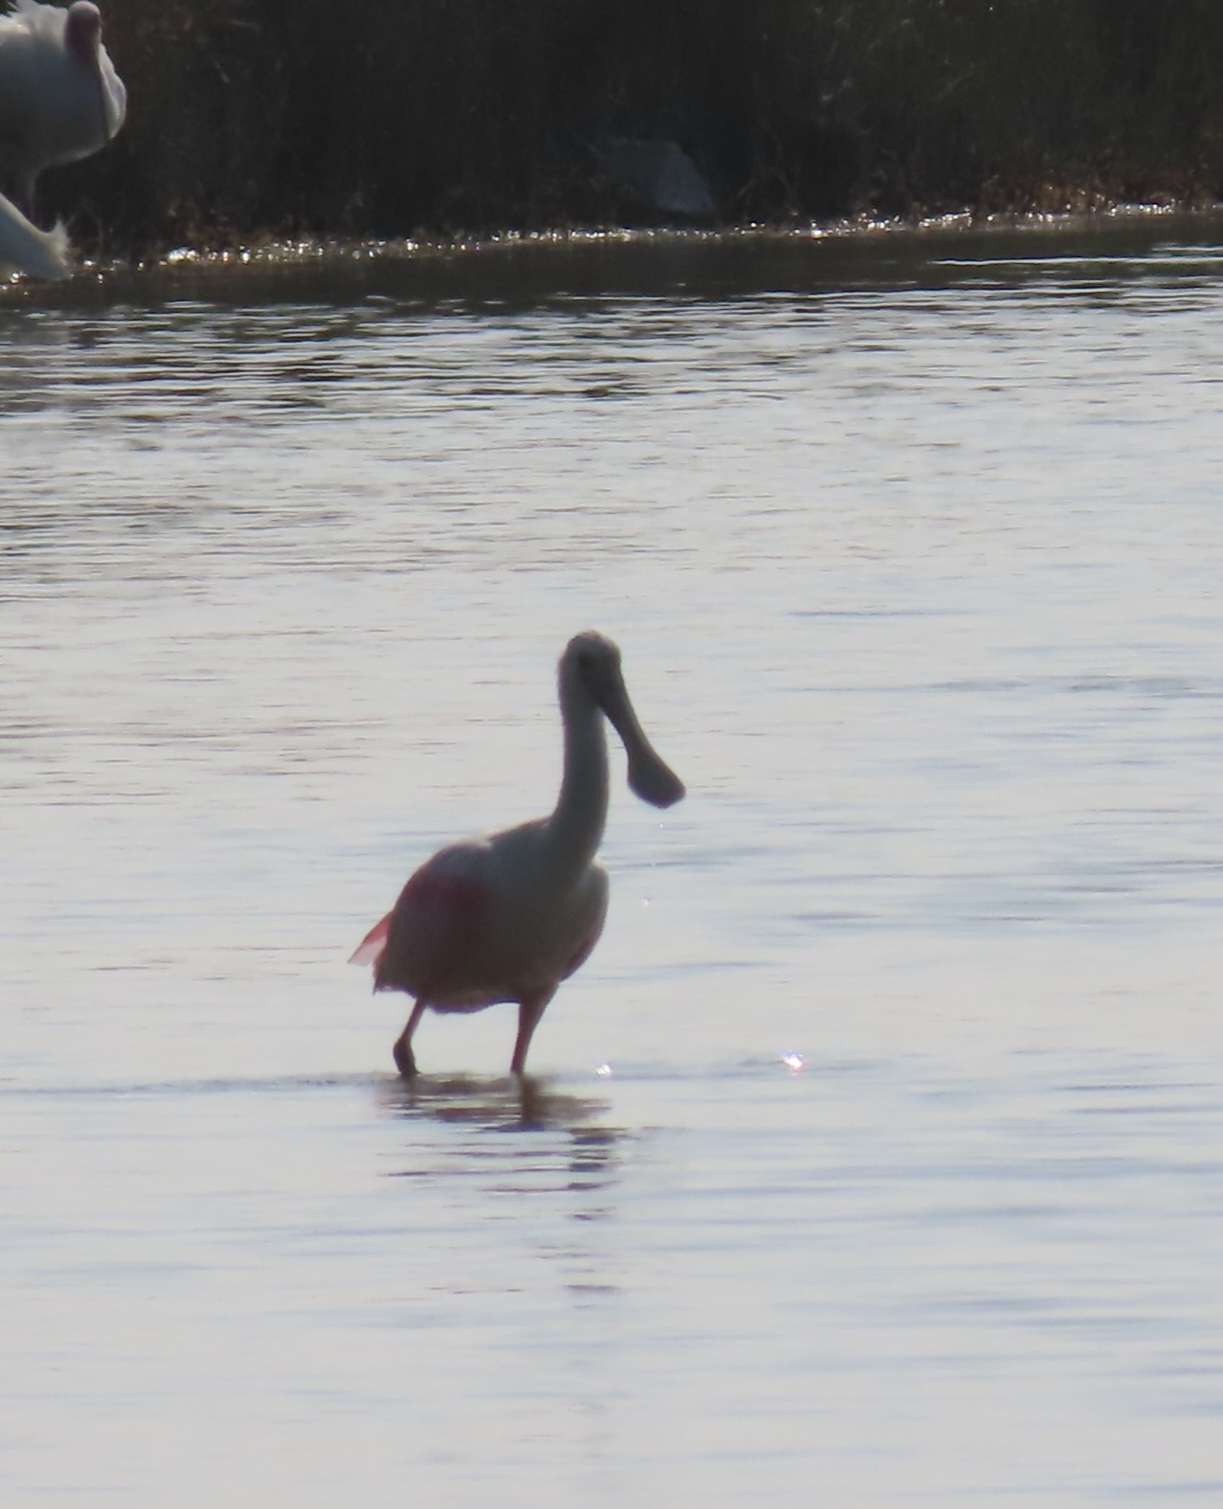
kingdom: Animalia
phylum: Chordata
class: Aves
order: Pelecaniformes
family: Threskiornithidae
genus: Platalea
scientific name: Platalea ajaja
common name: Roseate spoonbill
